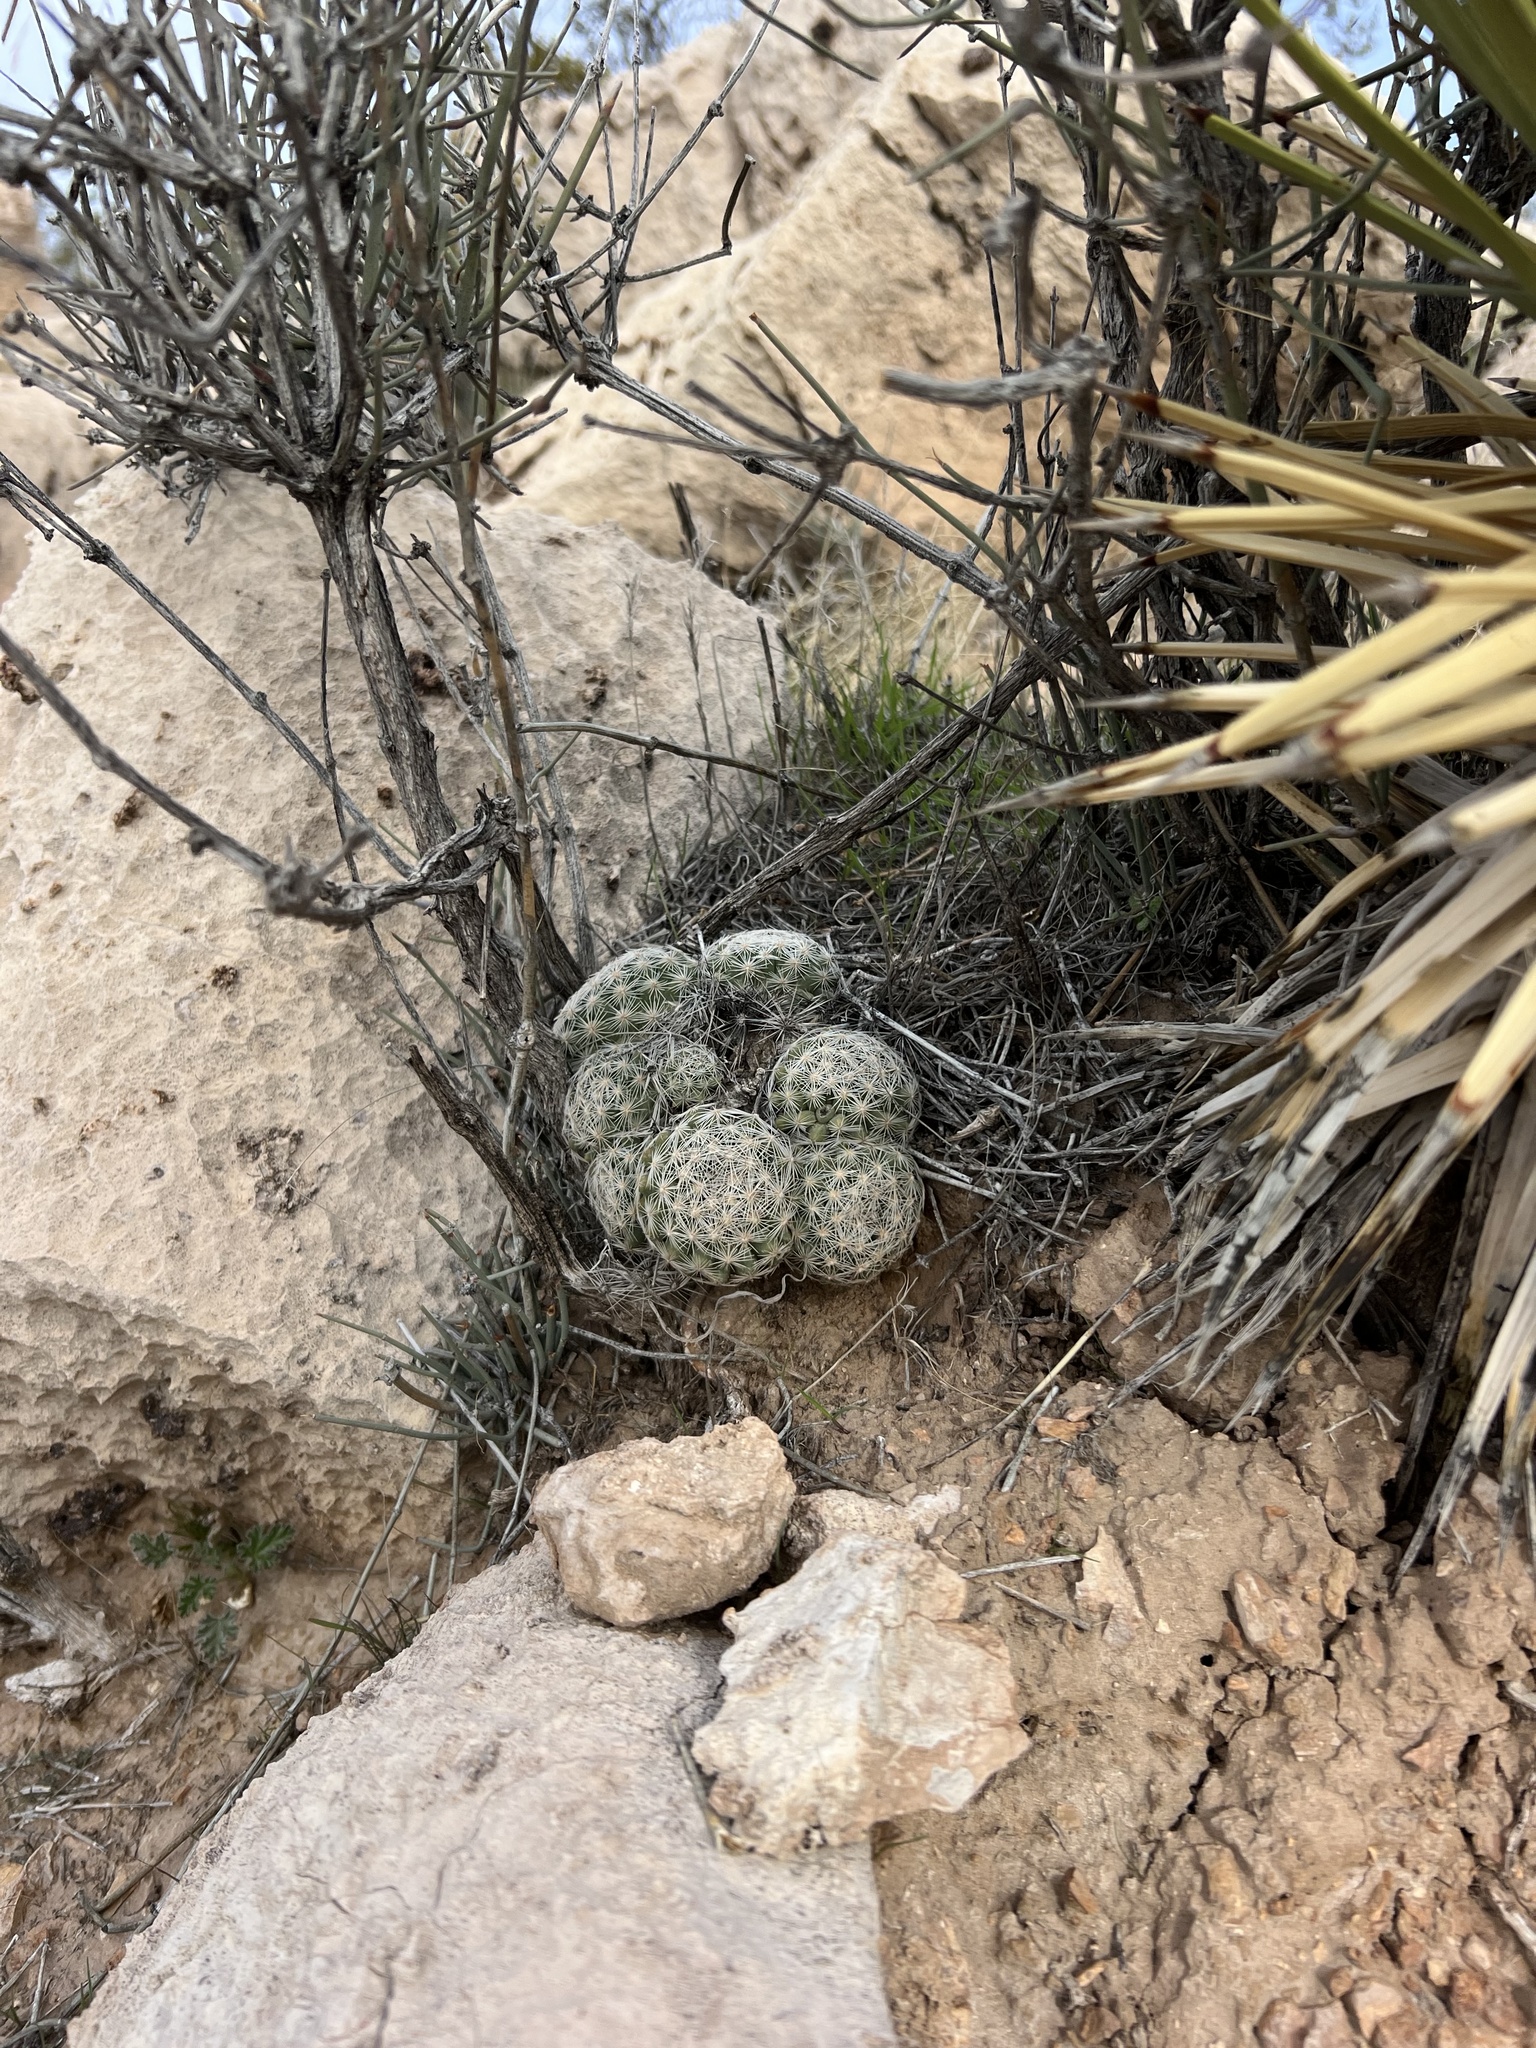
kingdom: Plantae
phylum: Tracheophyta
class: Magnoliopsida
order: Caryophyllales
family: Cactaceae
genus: Pelecyphora
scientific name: Pelecyphora dasyacantha
